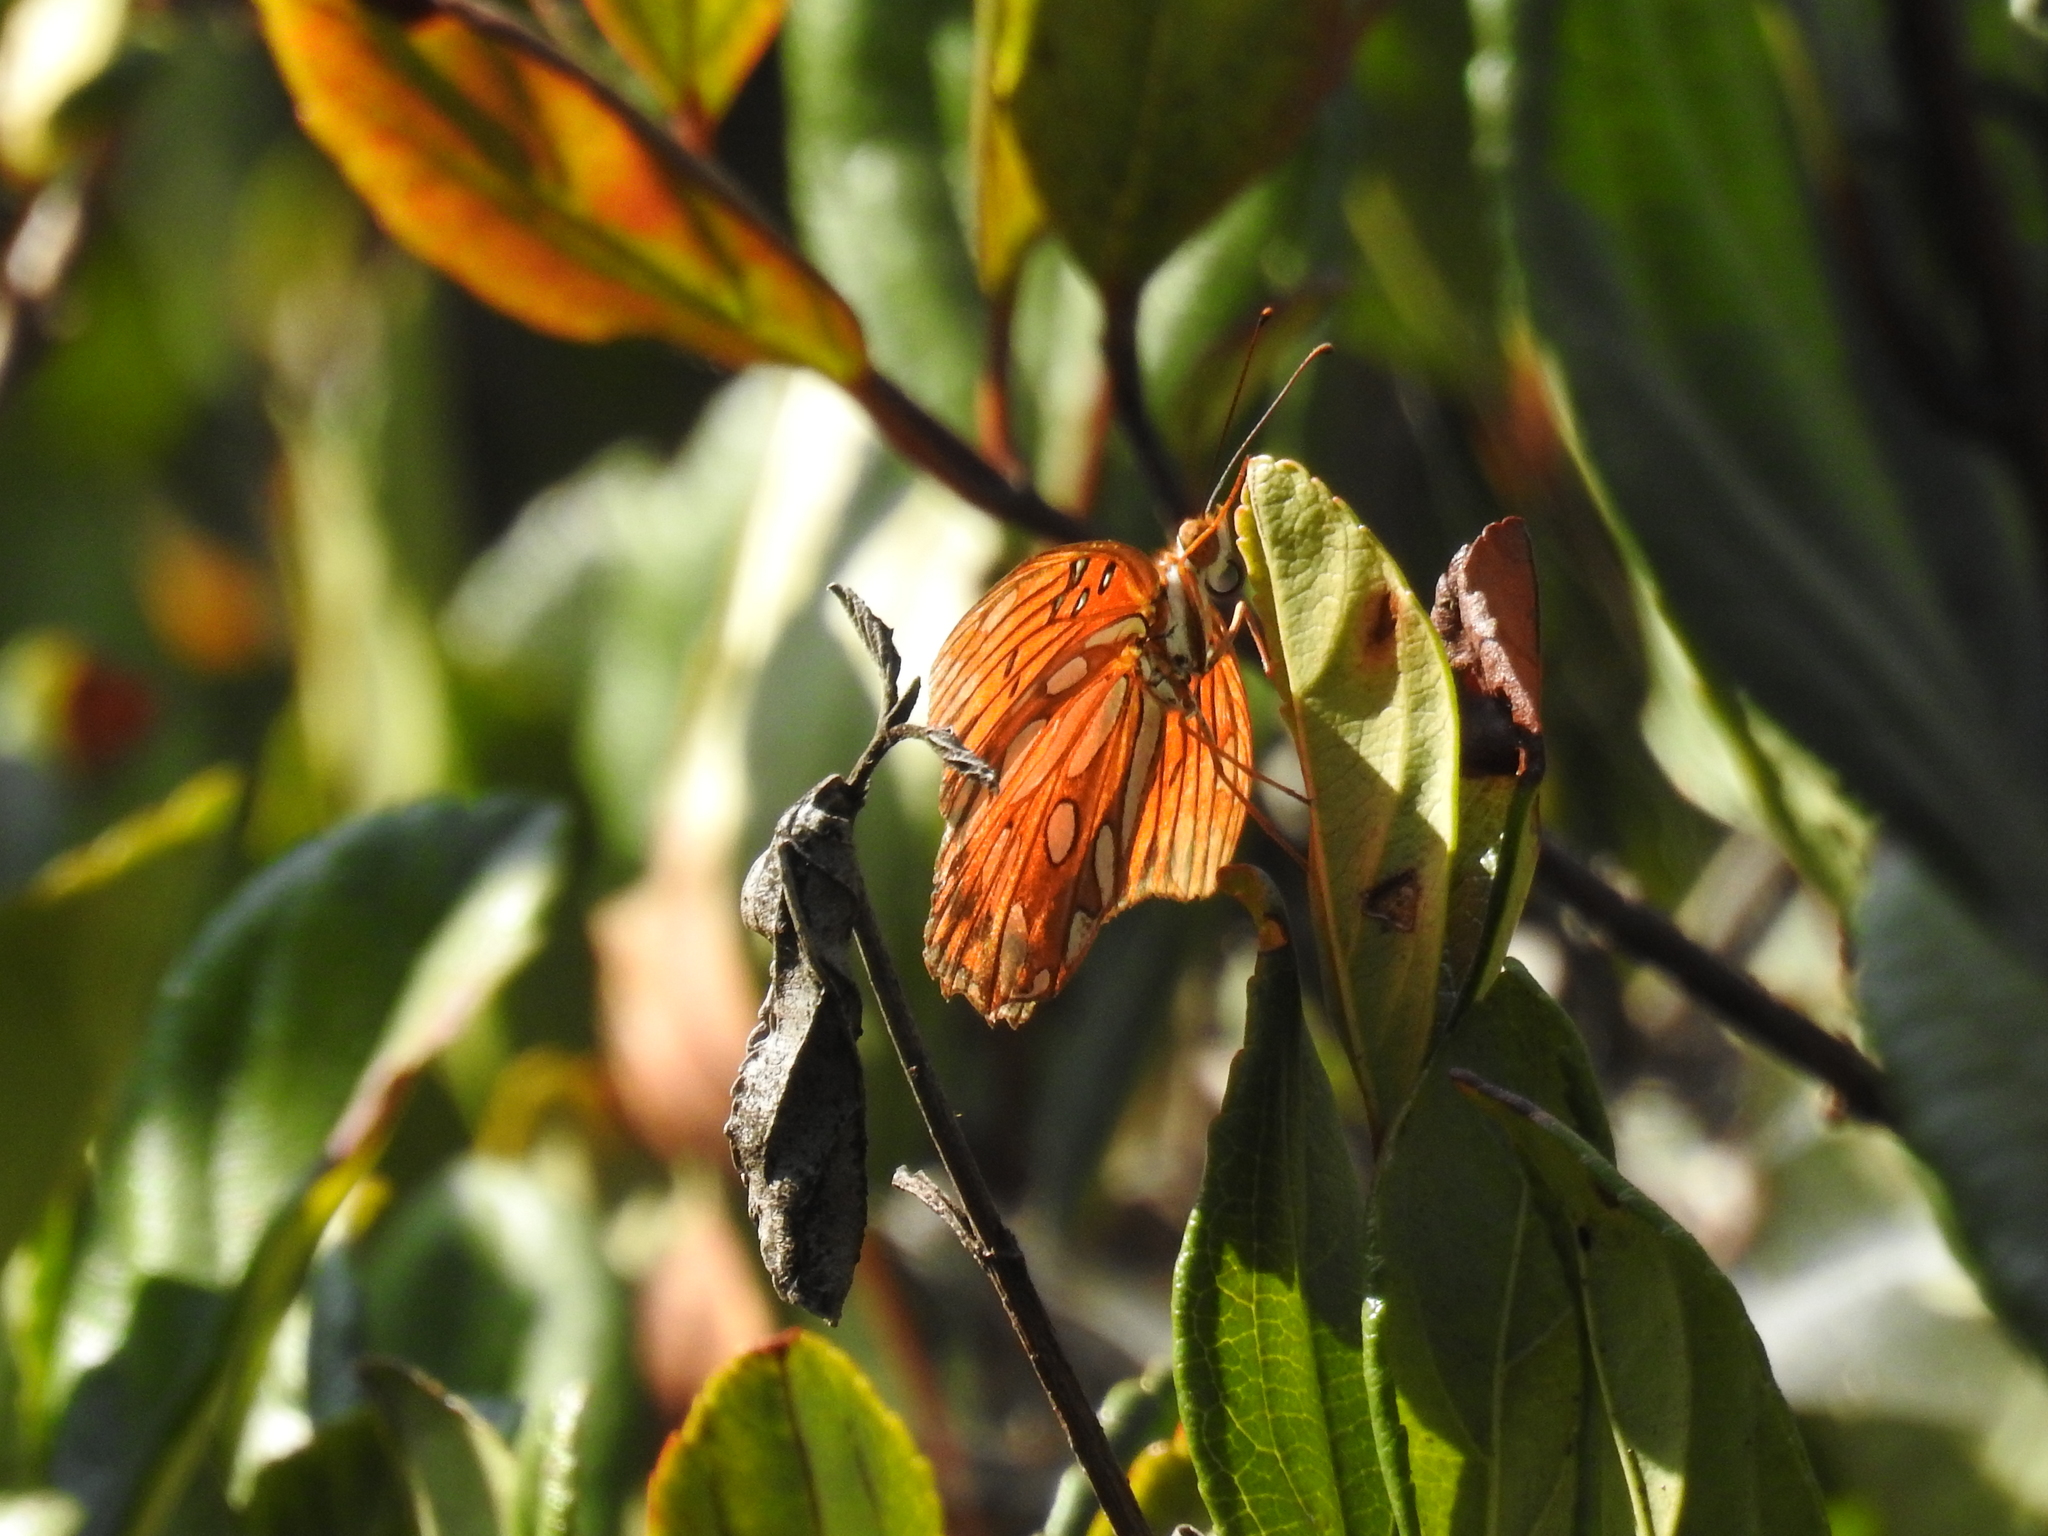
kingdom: Animalia
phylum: Arthropoda
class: Insecta
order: Lepidoptera
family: Nymphalidae
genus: Dione
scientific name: Dione vanillae
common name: Gulf fritillary
